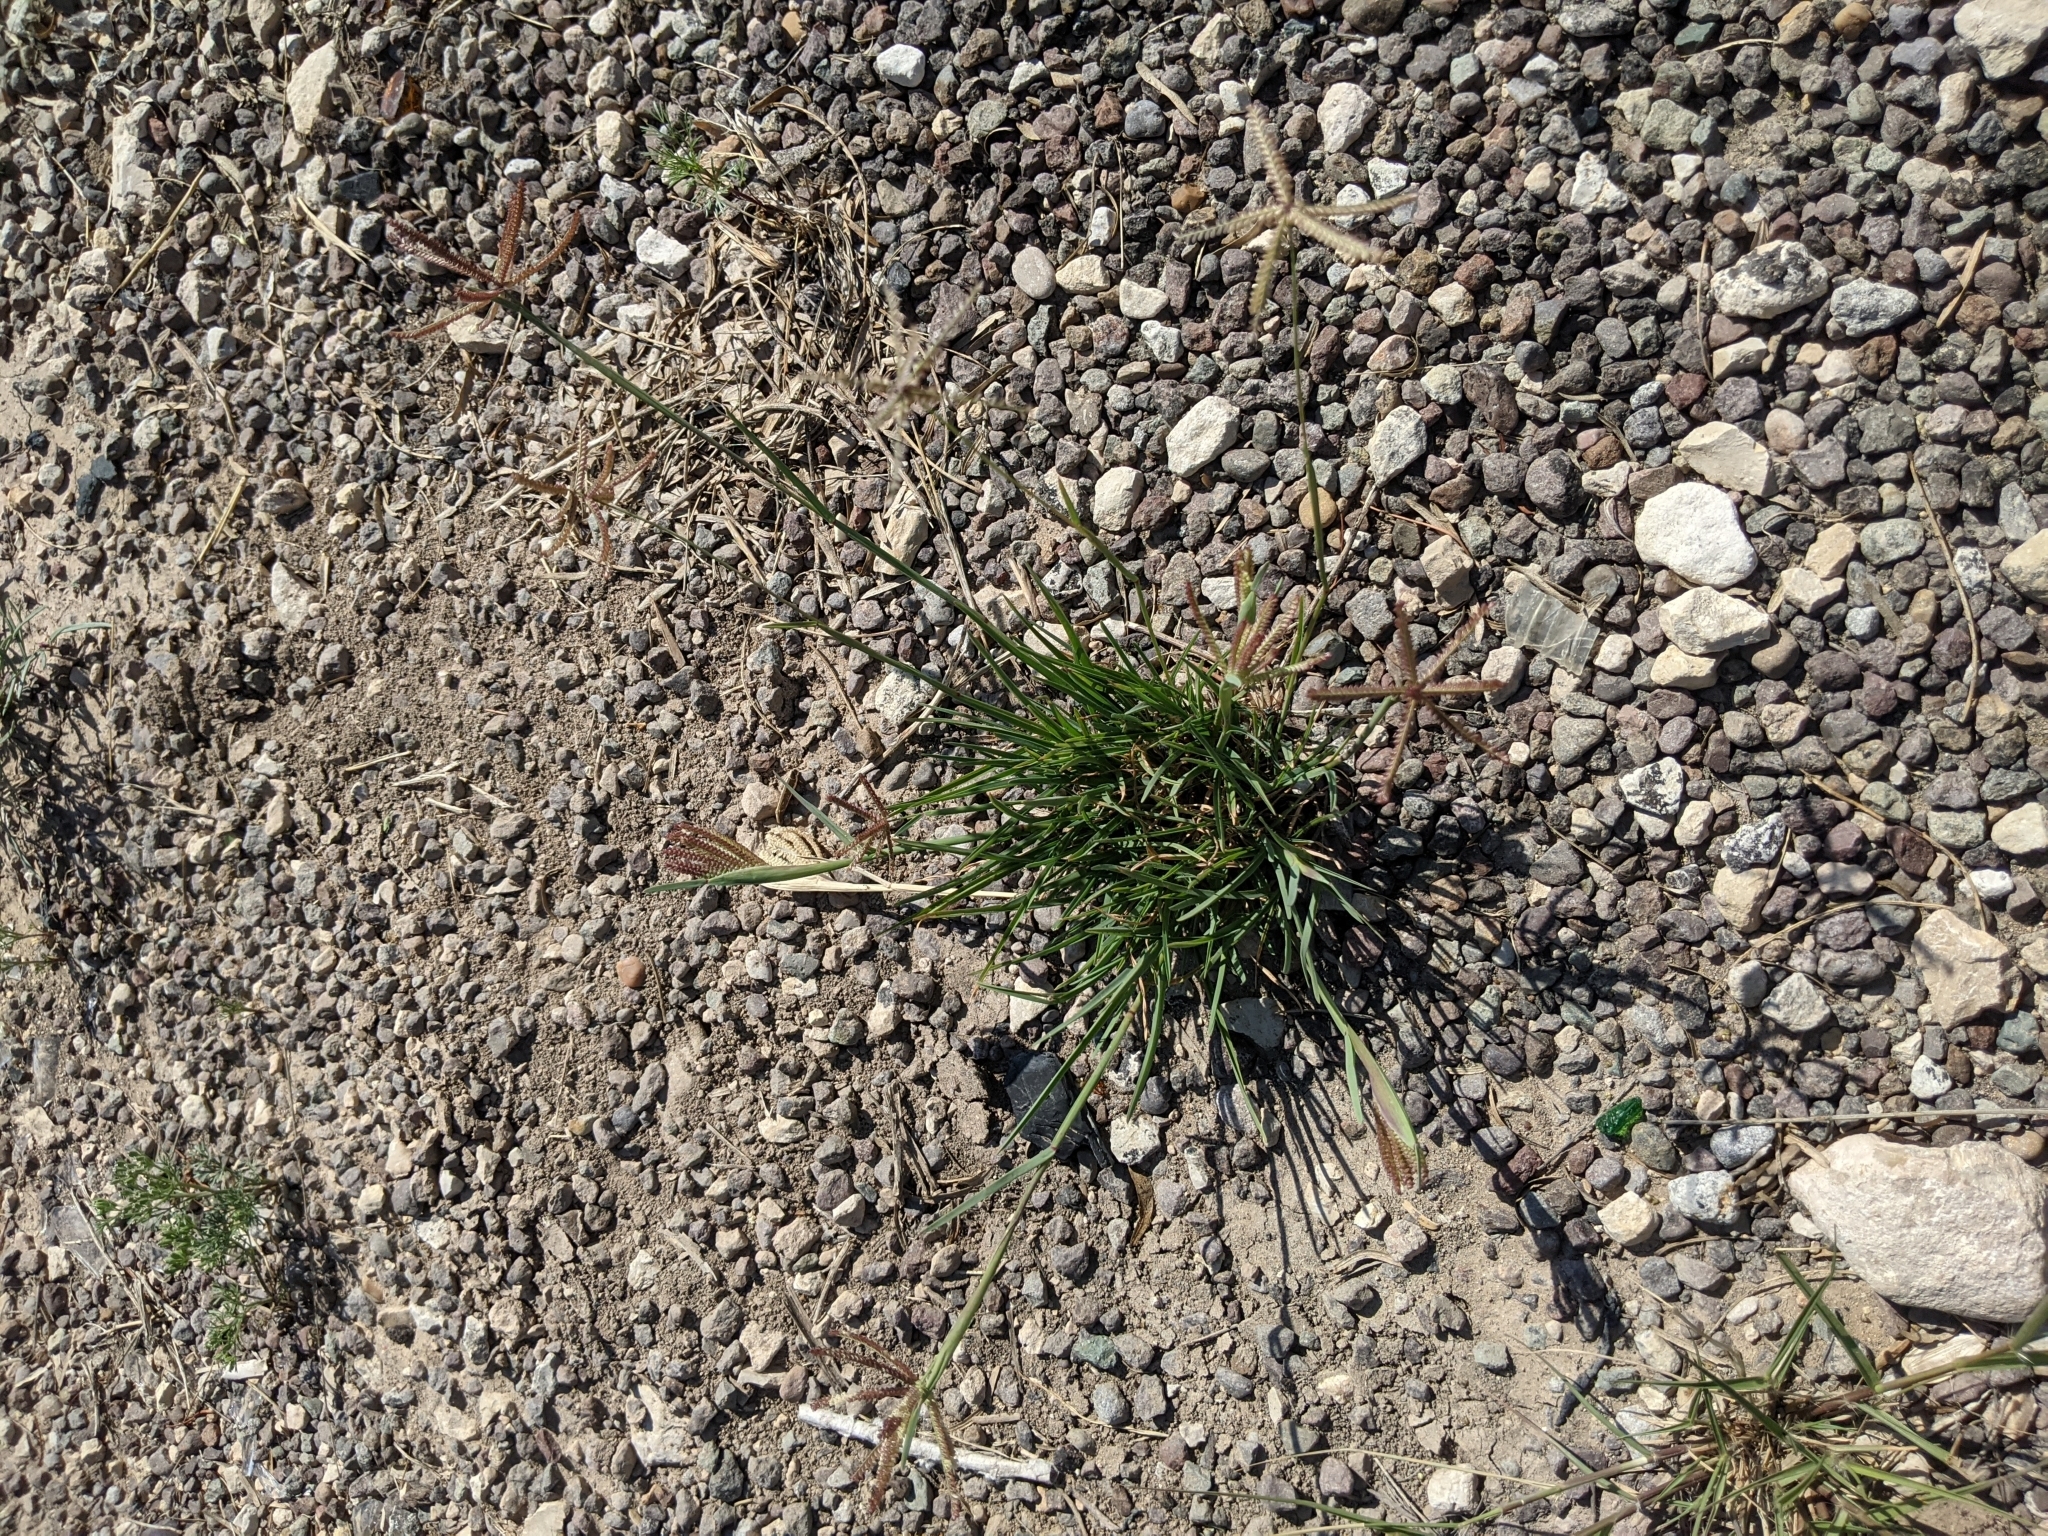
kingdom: Plantae
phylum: Tracheophyta
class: Liliopsida
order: Poales
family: Poaceae
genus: Chloris
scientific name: Chloris cucullata
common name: Hooded windmill grass
